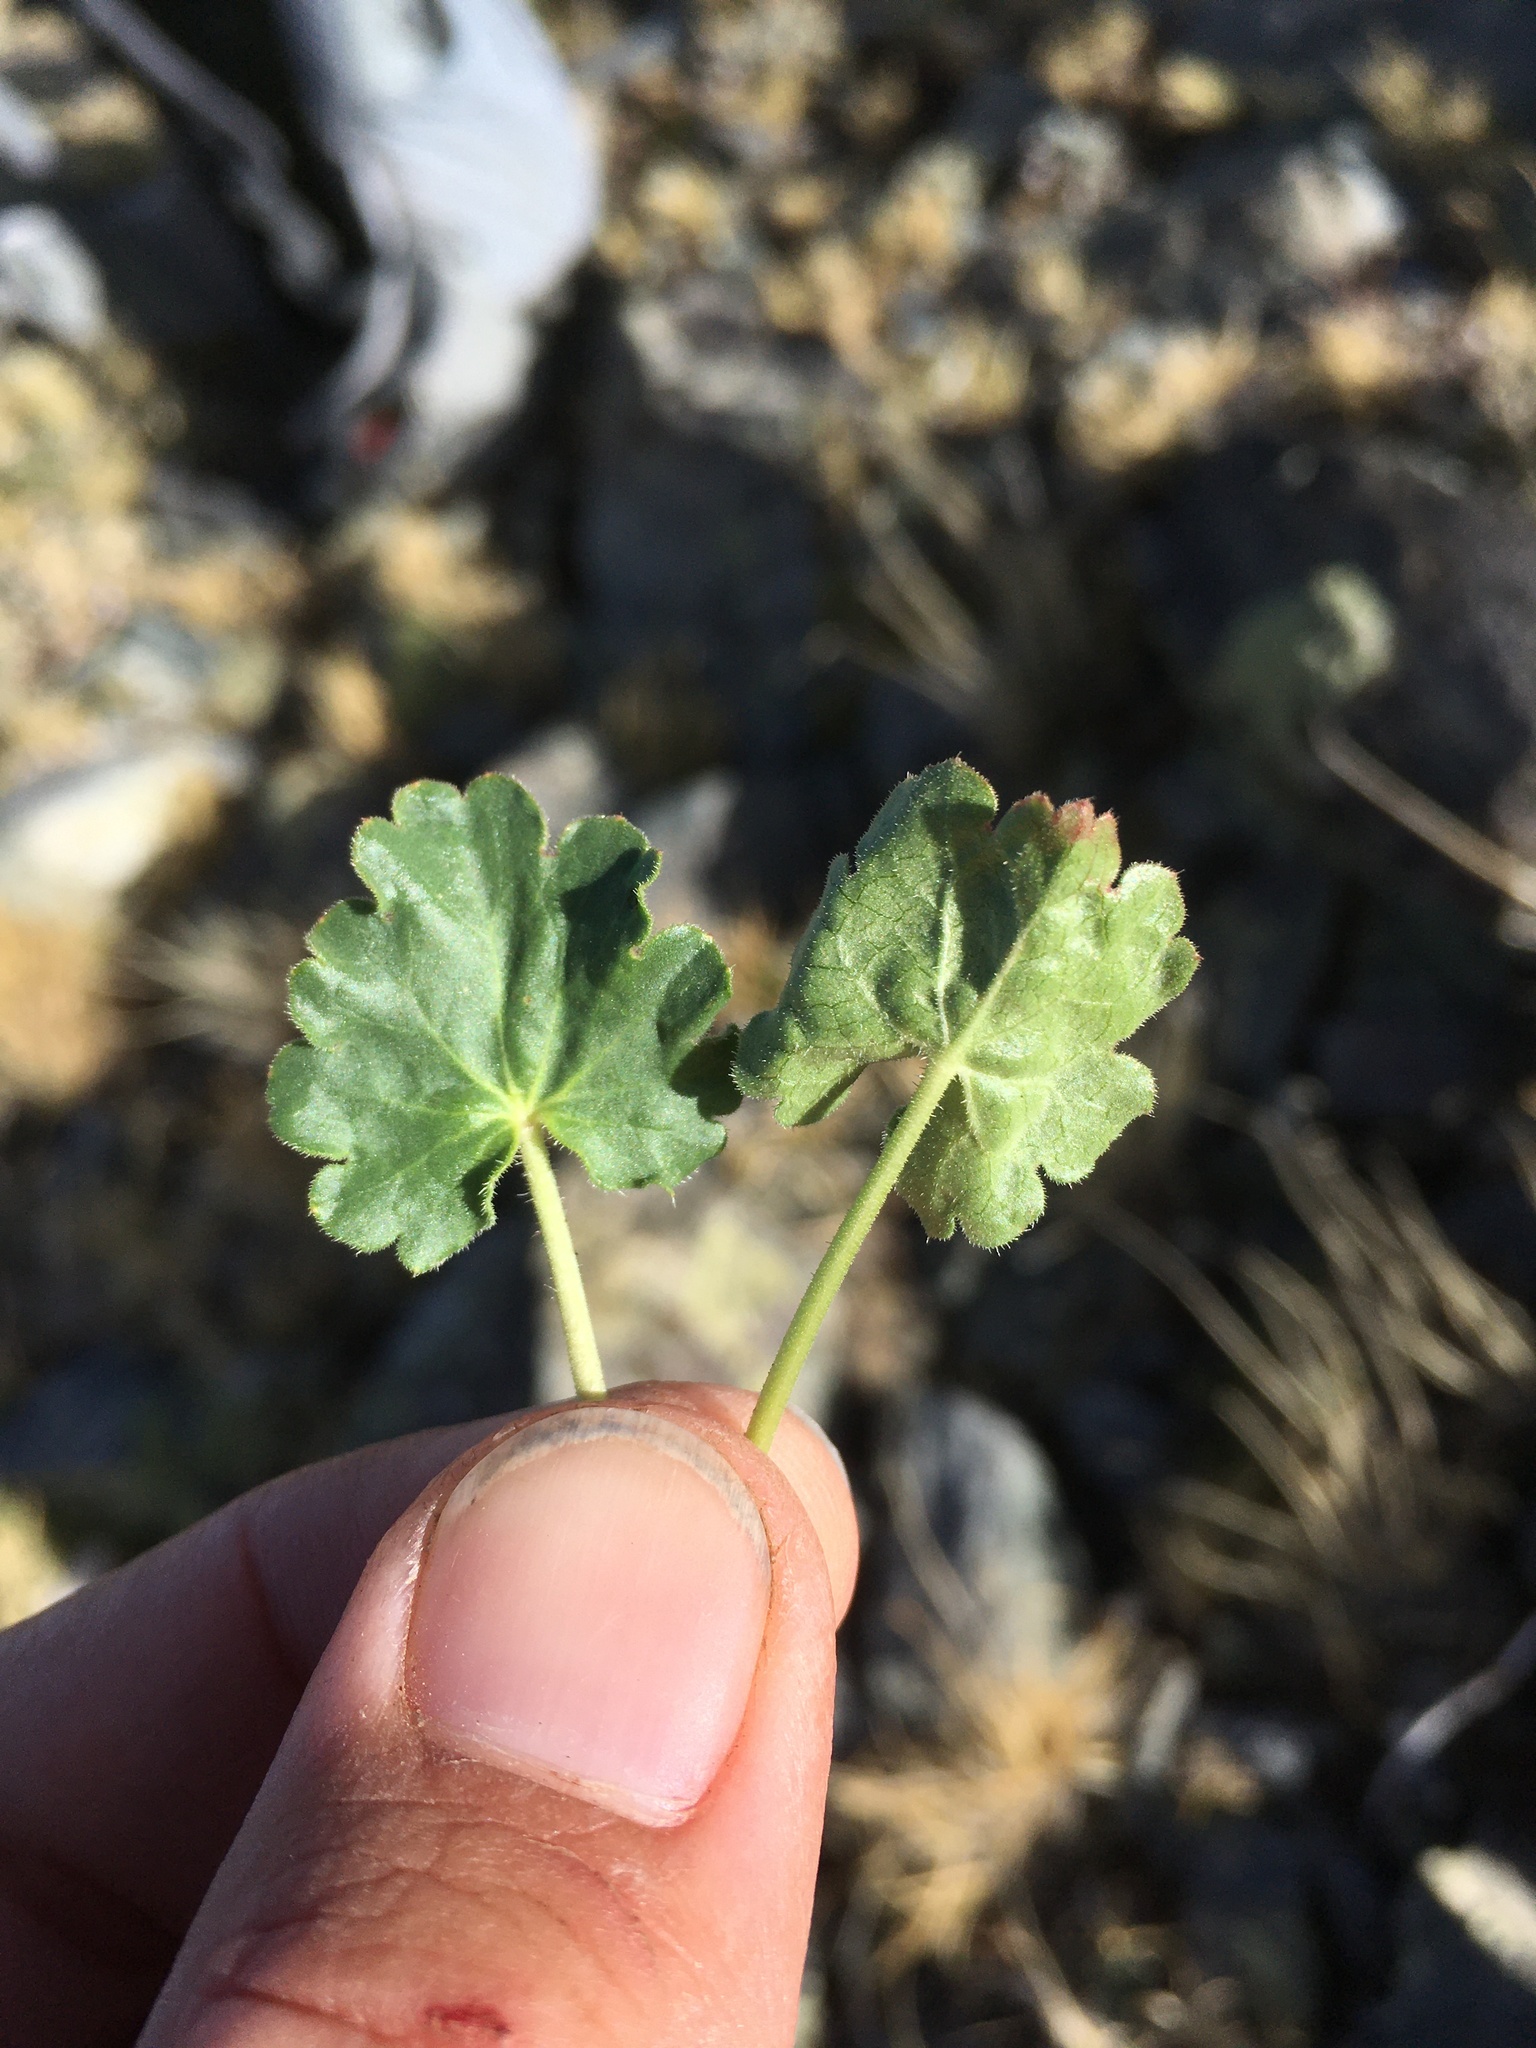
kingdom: Plantae
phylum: Tracheophyta
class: Magnoliopsida
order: Saxifragales
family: Saxifragaceae
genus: Heuchera
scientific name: Heuchera parvifolia
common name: Common alumroot
